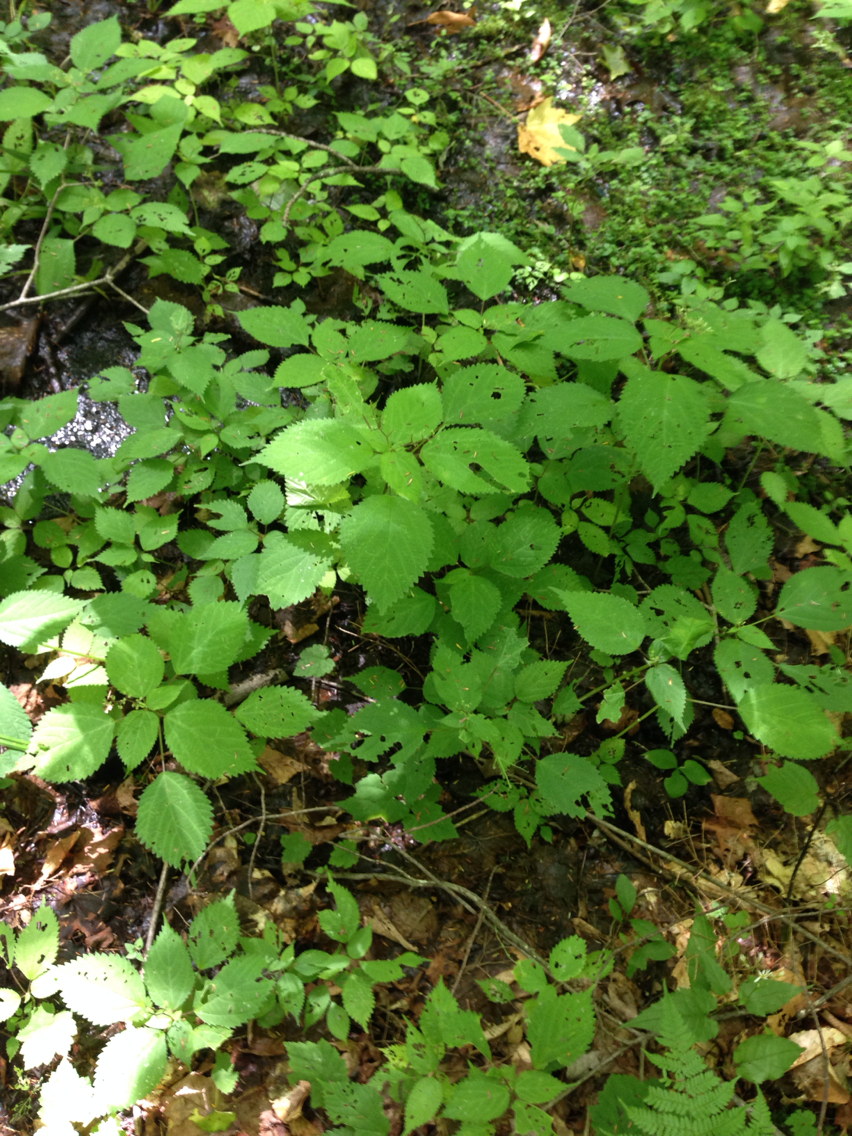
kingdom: Plantae
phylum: Tracheophyta
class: Magnoliopsida
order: Rosales
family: Urticaceae
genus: Laportea
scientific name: Laportea canadensis
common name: Canada nettle
